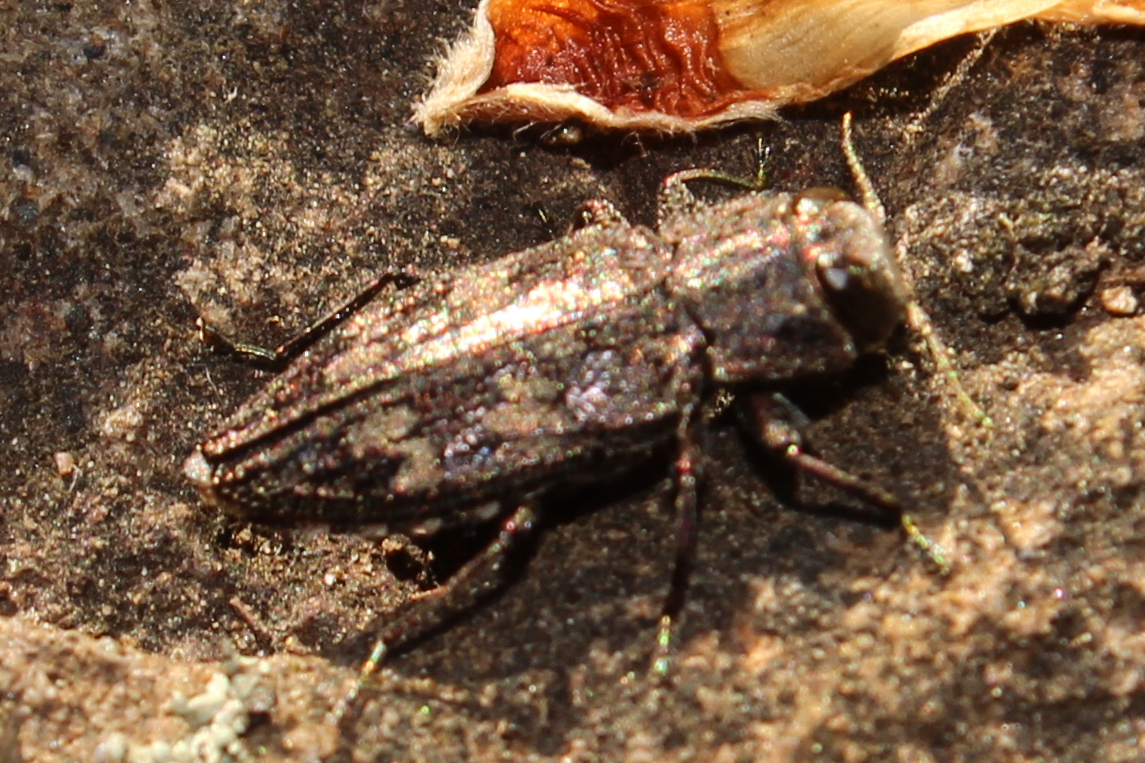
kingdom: Animalia
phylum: Arthropoda
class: Insecta
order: Coleoptera
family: Buprestidae
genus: Chrysobothris
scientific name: Chrysobothris
